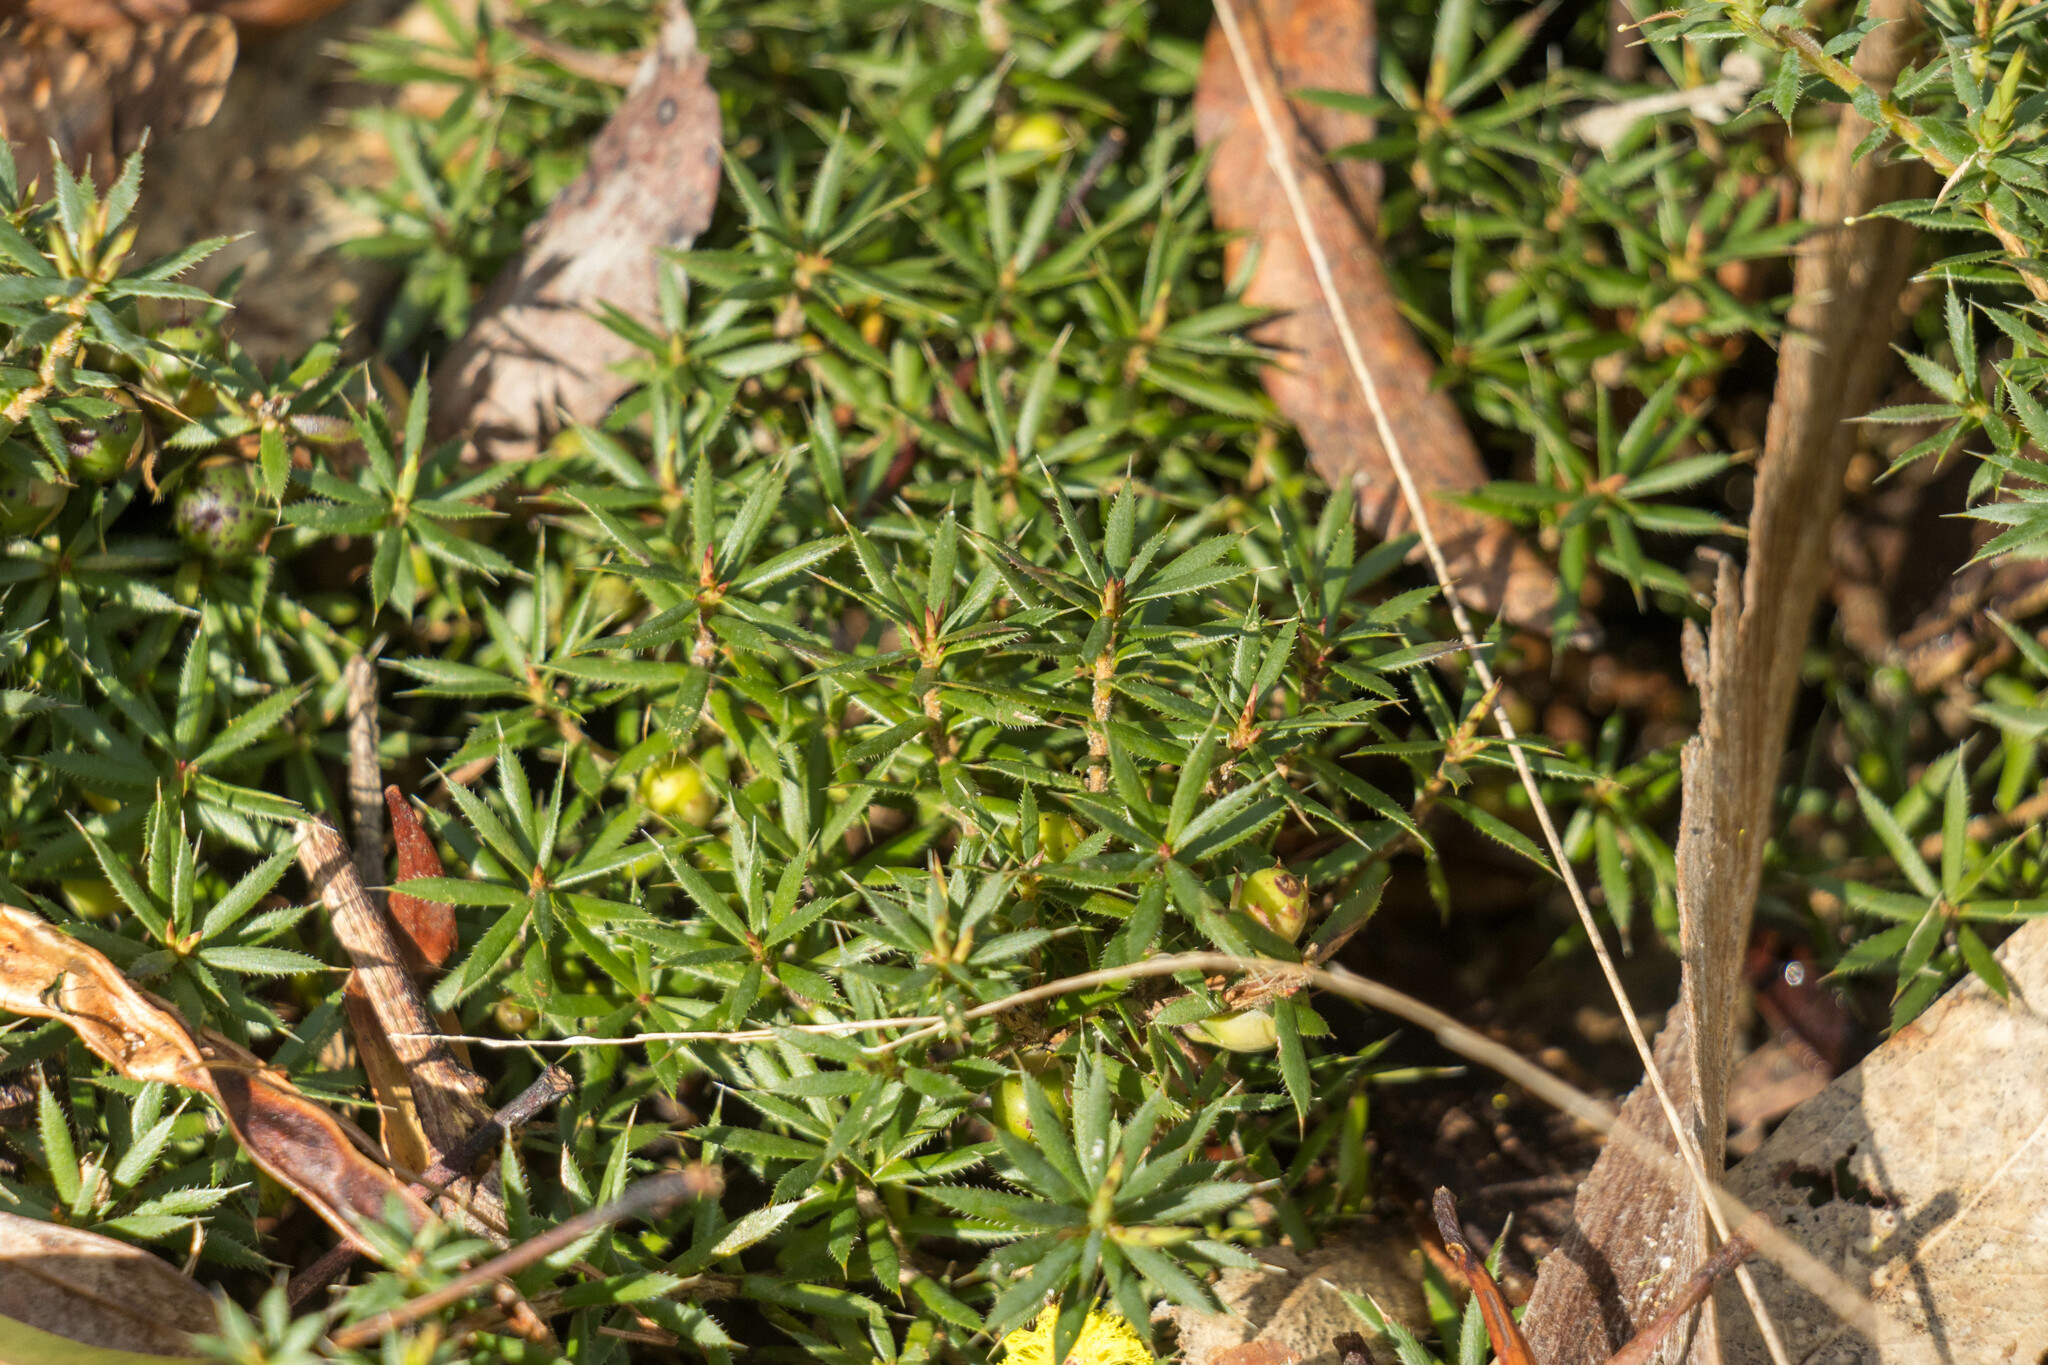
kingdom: Plantae
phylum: Tracheophyta
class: Magnoliopsida
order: Ericales
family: Ericaceae
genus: Styphelia
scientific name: Styphelia humifusa
